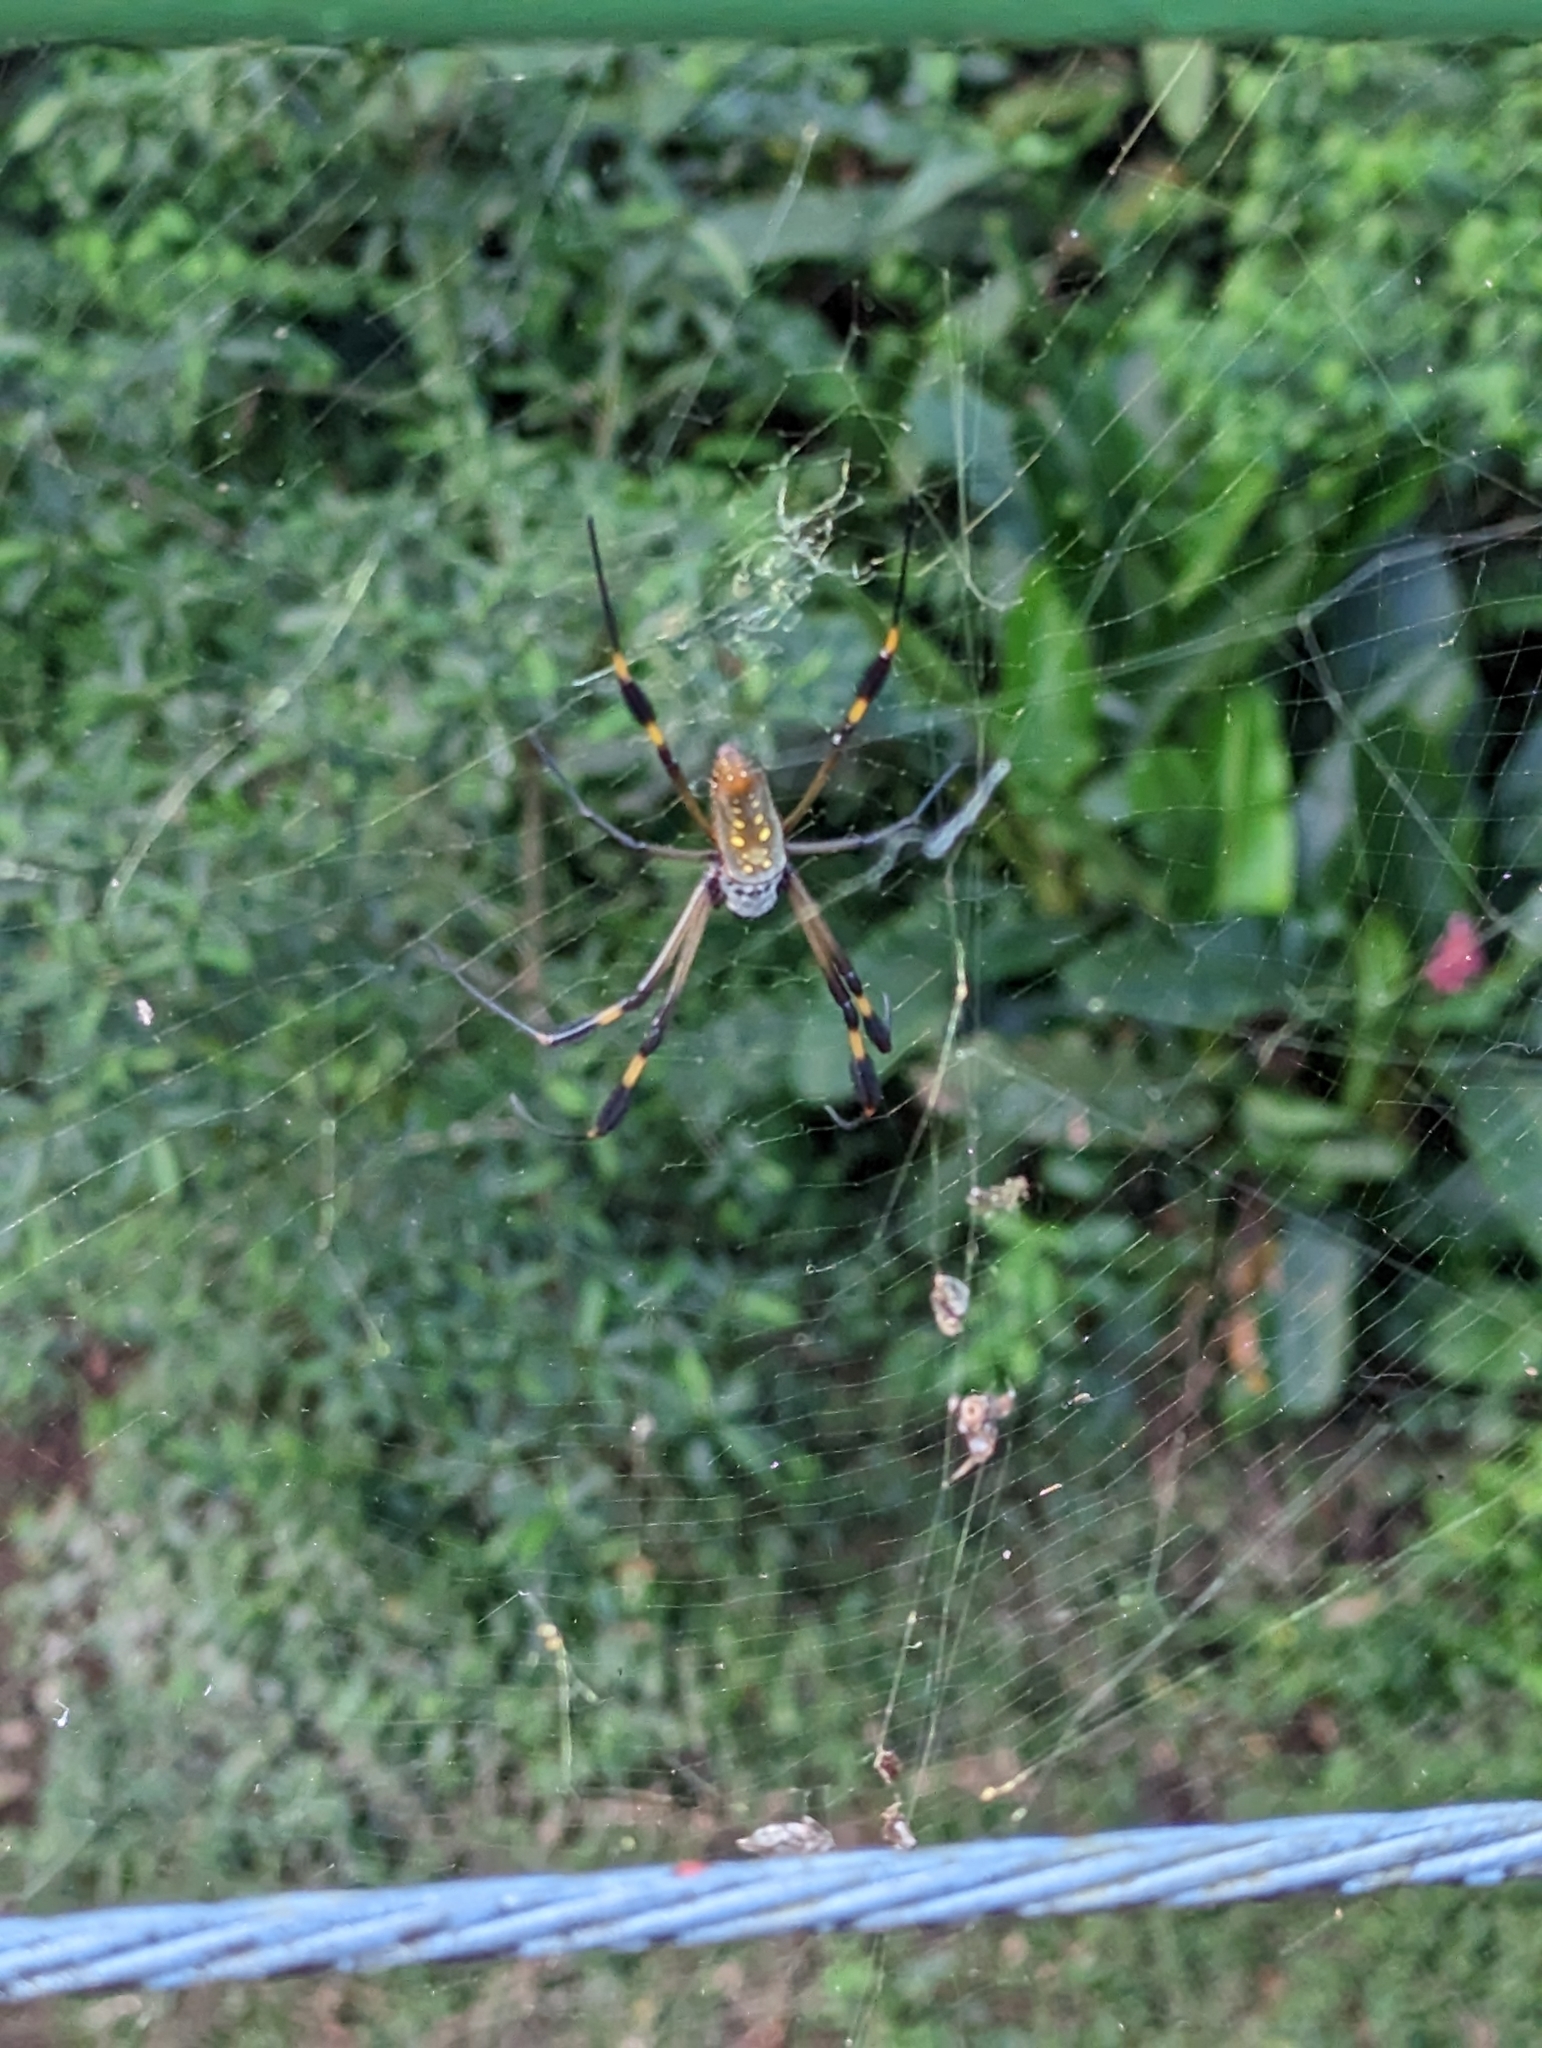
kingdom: Animalia
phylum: Arthropoda
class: Arachnida
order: Araneae
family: Araneidae
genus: Trichonephila
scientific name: Trichonephila clavipes
